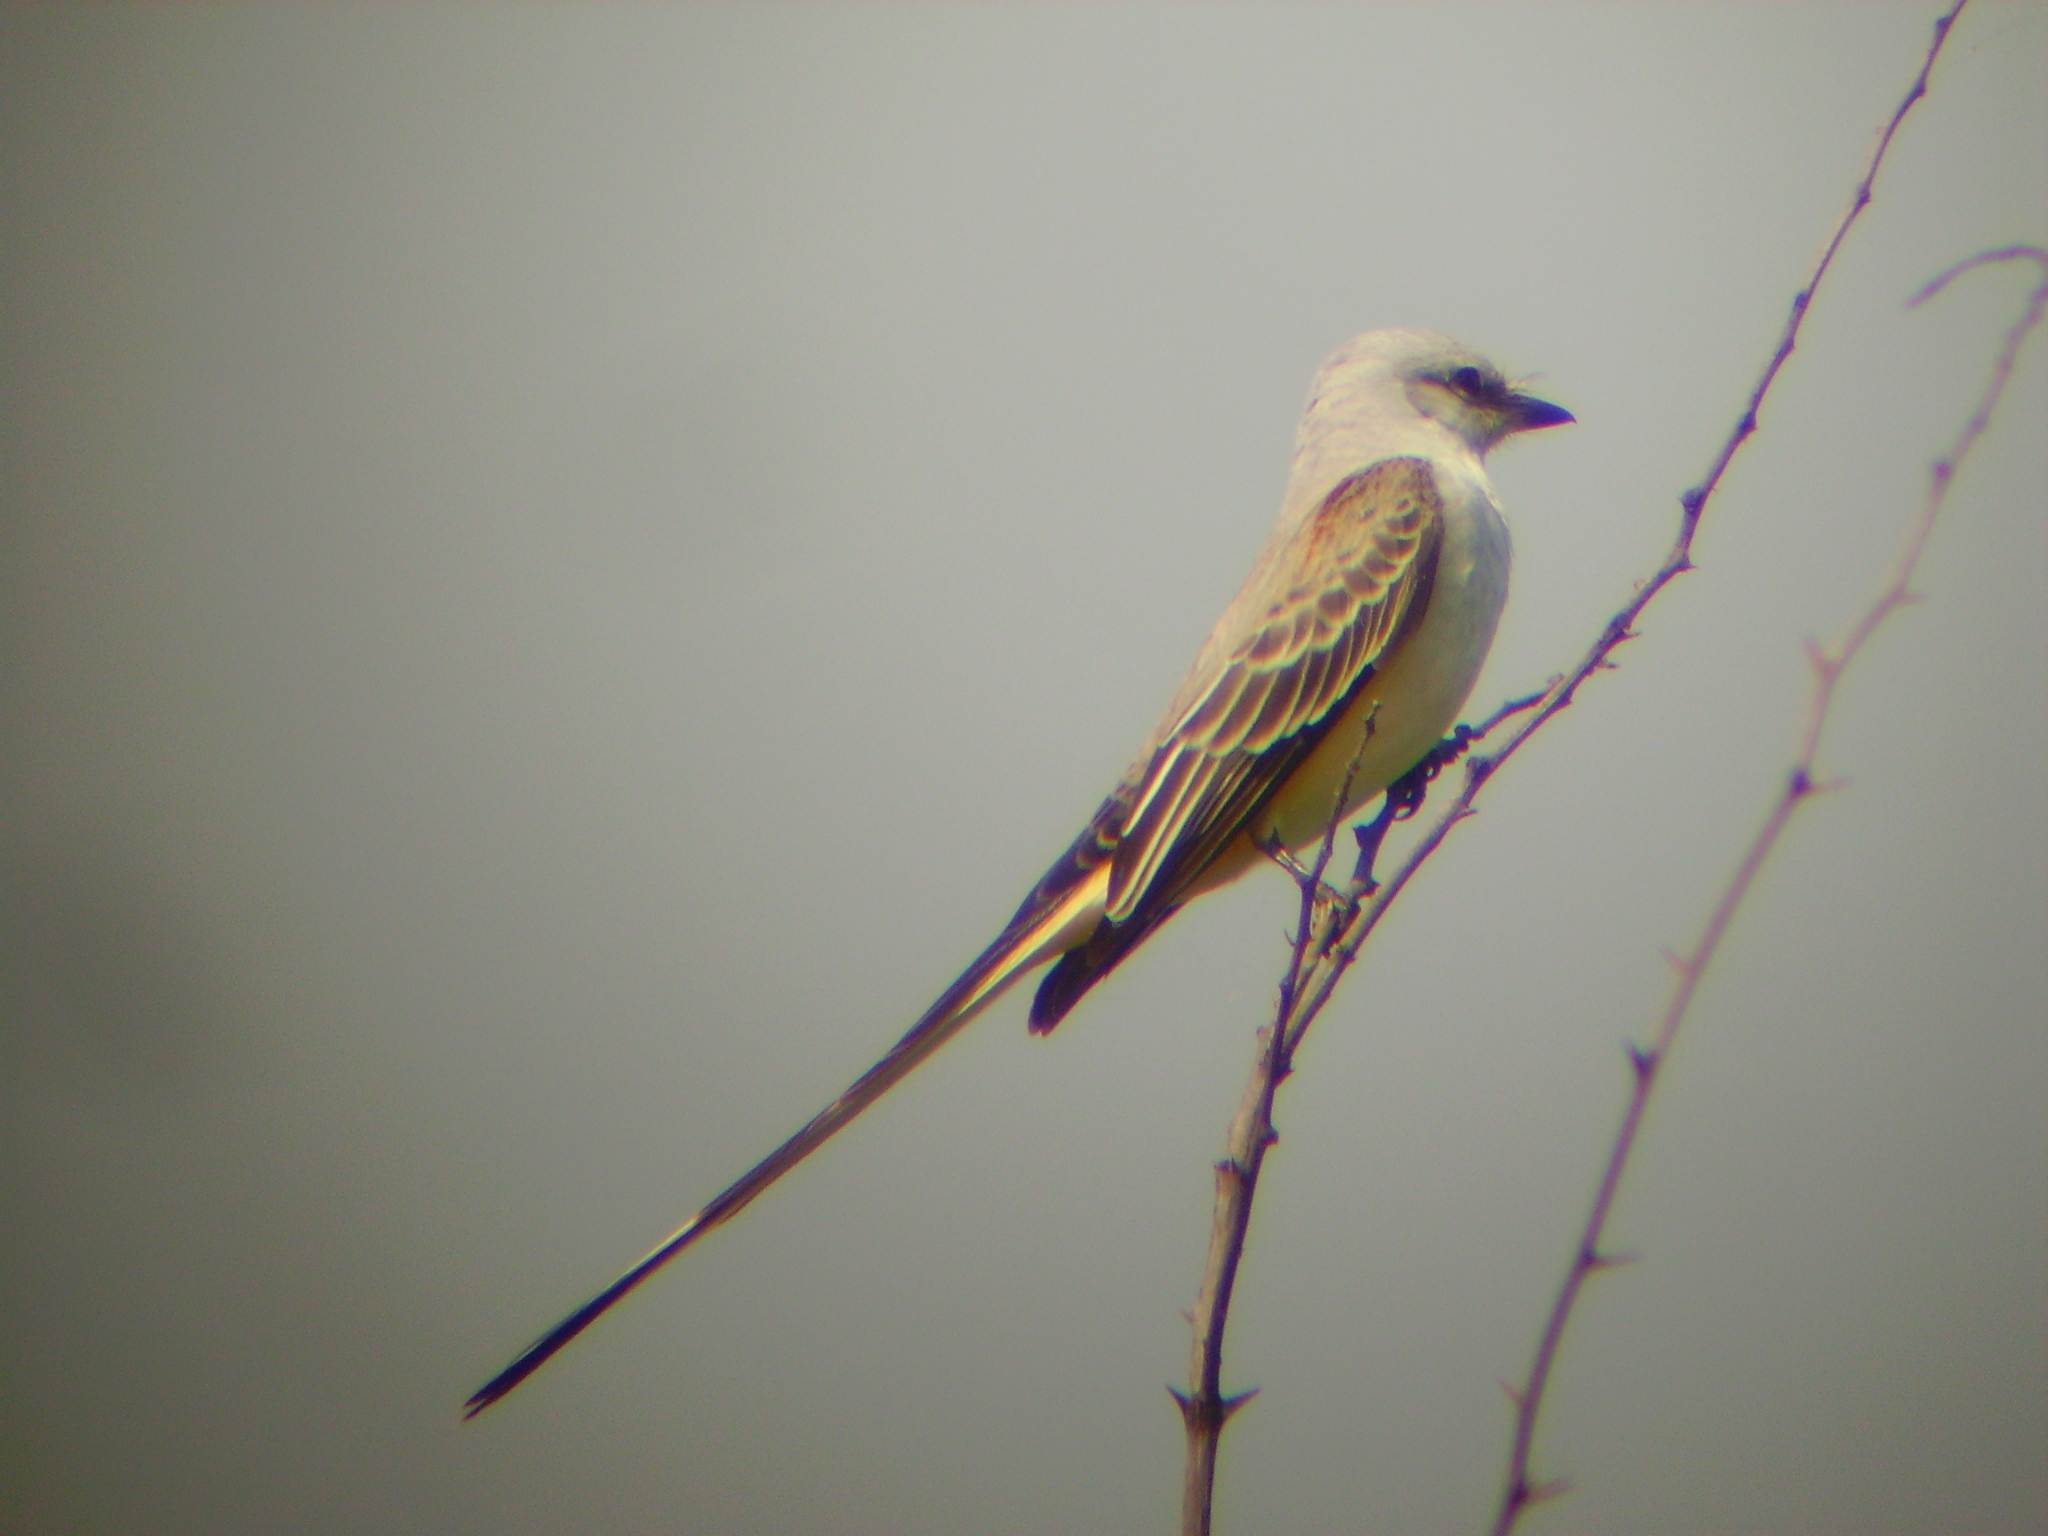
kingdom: Animalia
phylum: Chordata
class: Aves
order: Passeriformes
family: Tyrannidae
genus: Tyrannus
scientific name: Tyrannus forficatus
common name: Scissor-tailed flycatcher
